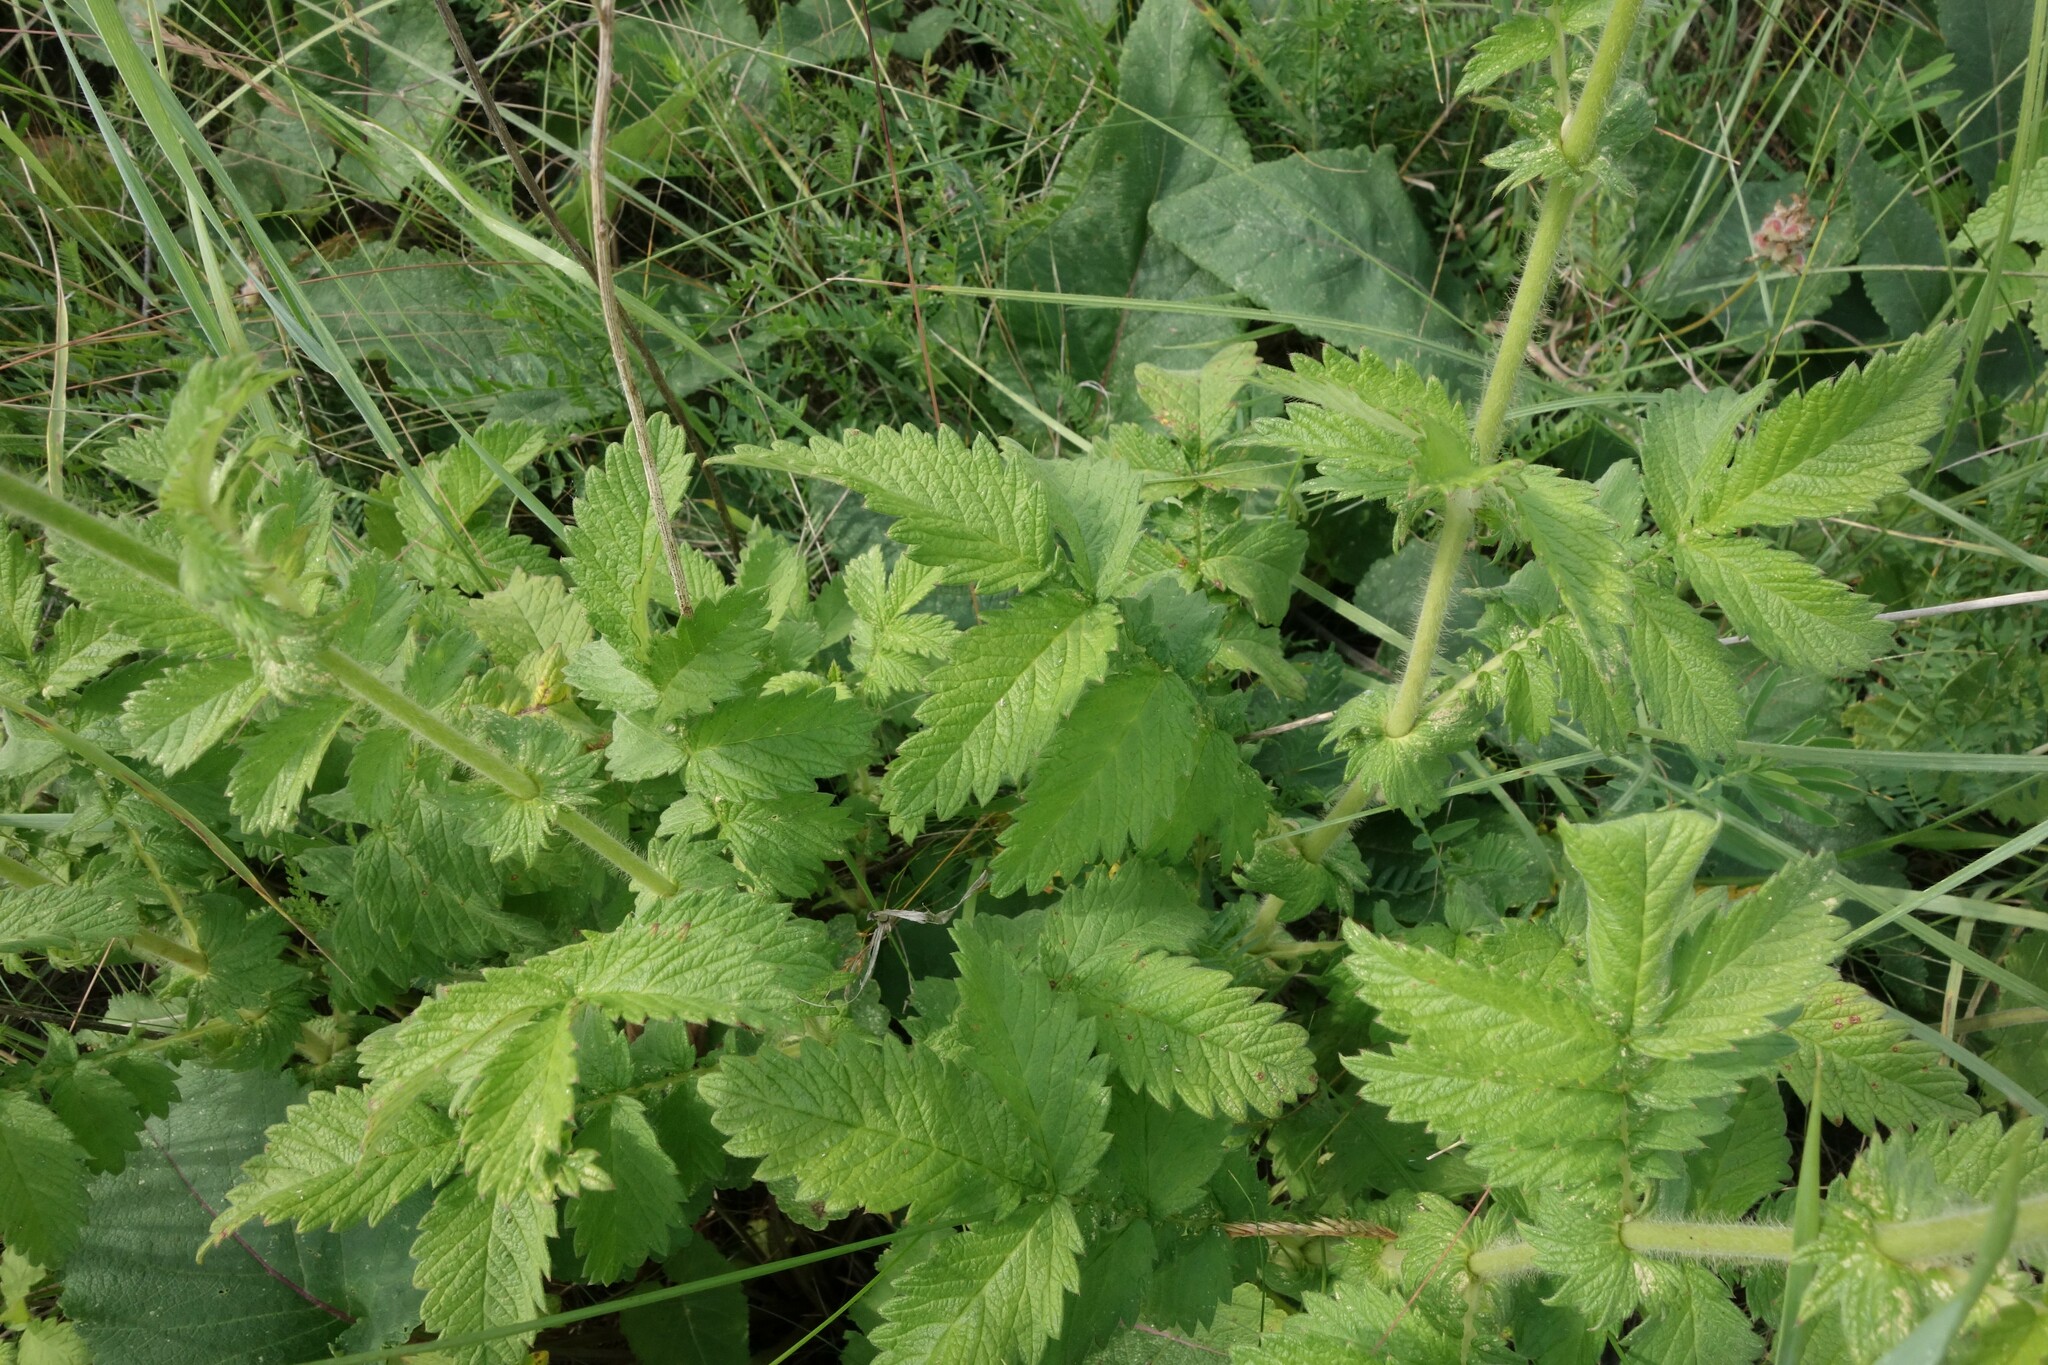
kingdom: Plantae
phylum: Tracheophyta
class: Magnoliopsida
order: Rosales
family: Rosaceae
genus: Agrimonia
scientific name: Agrimonia eupatoria
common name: Agrimony
